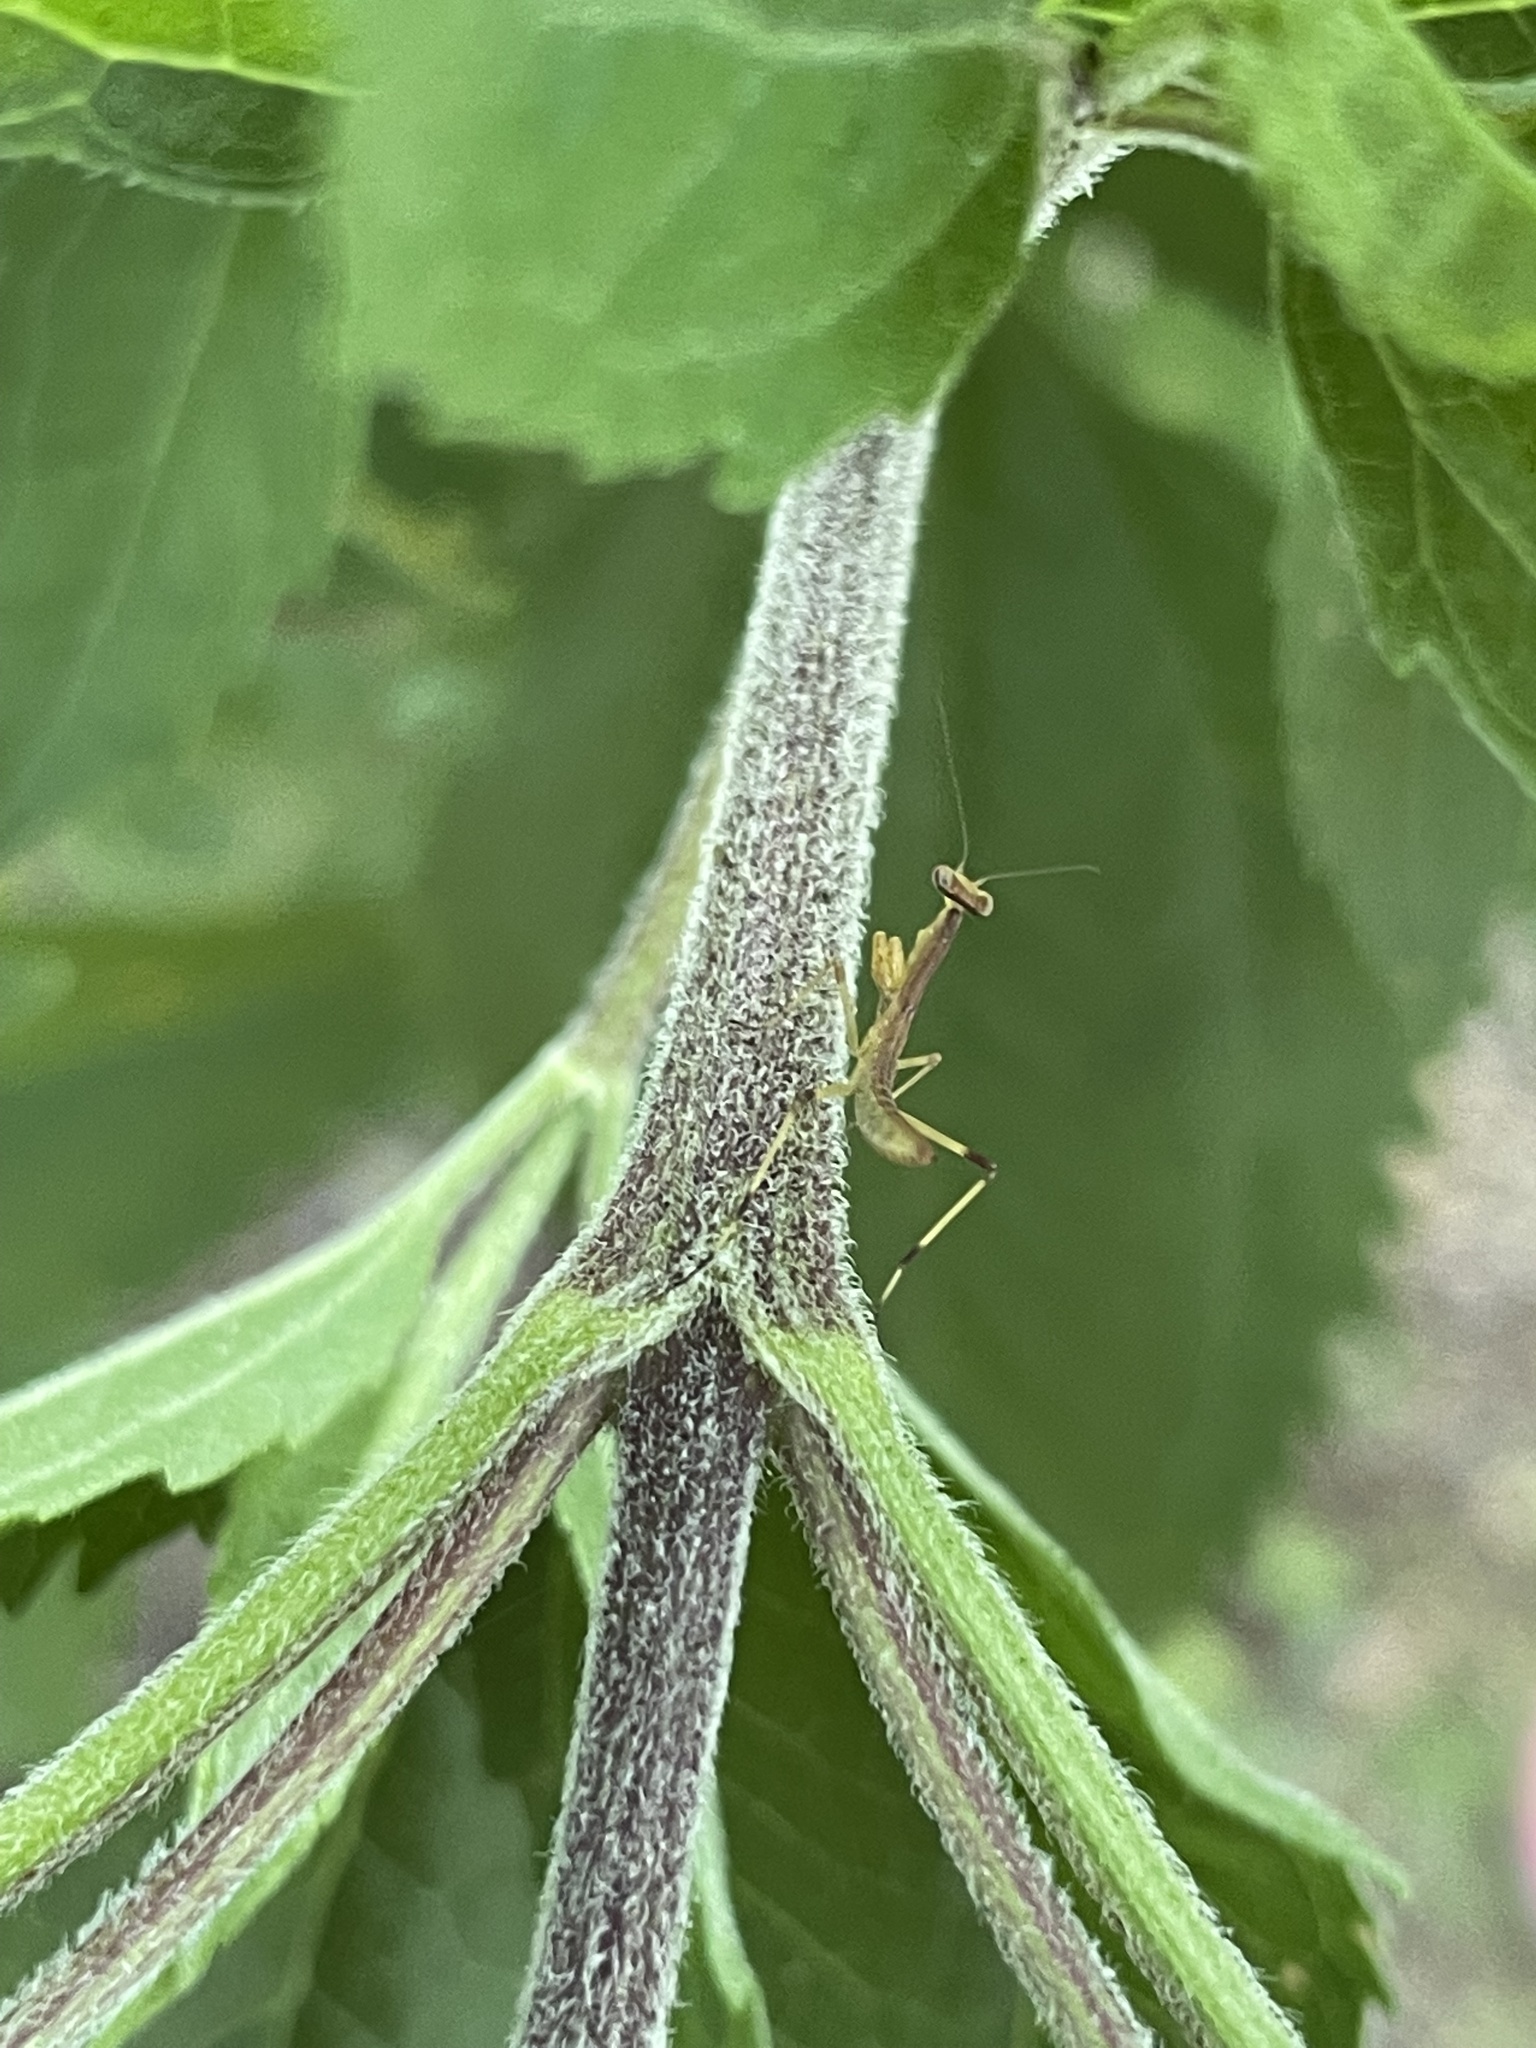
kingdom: Animalia
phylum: Arthropoda
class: Insecta
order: Mantodea
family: Mantidae
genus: Stagmomantis
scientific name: Stagmomantis carolina
